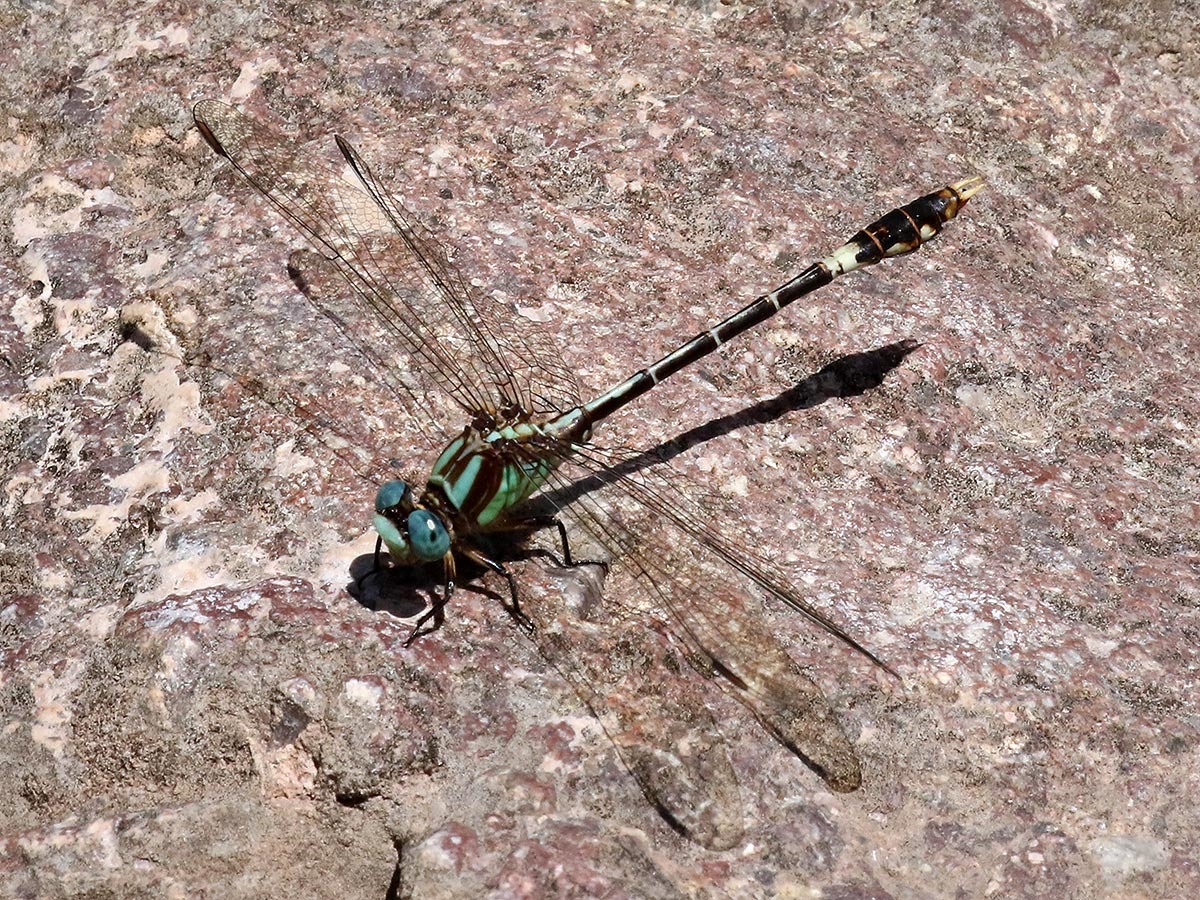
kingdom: Animalia
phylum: Arthropoda
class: Insecta
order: Odonata
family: Gomphidae
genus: Erpetogomphus
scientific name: Erpetogomphus molossus
